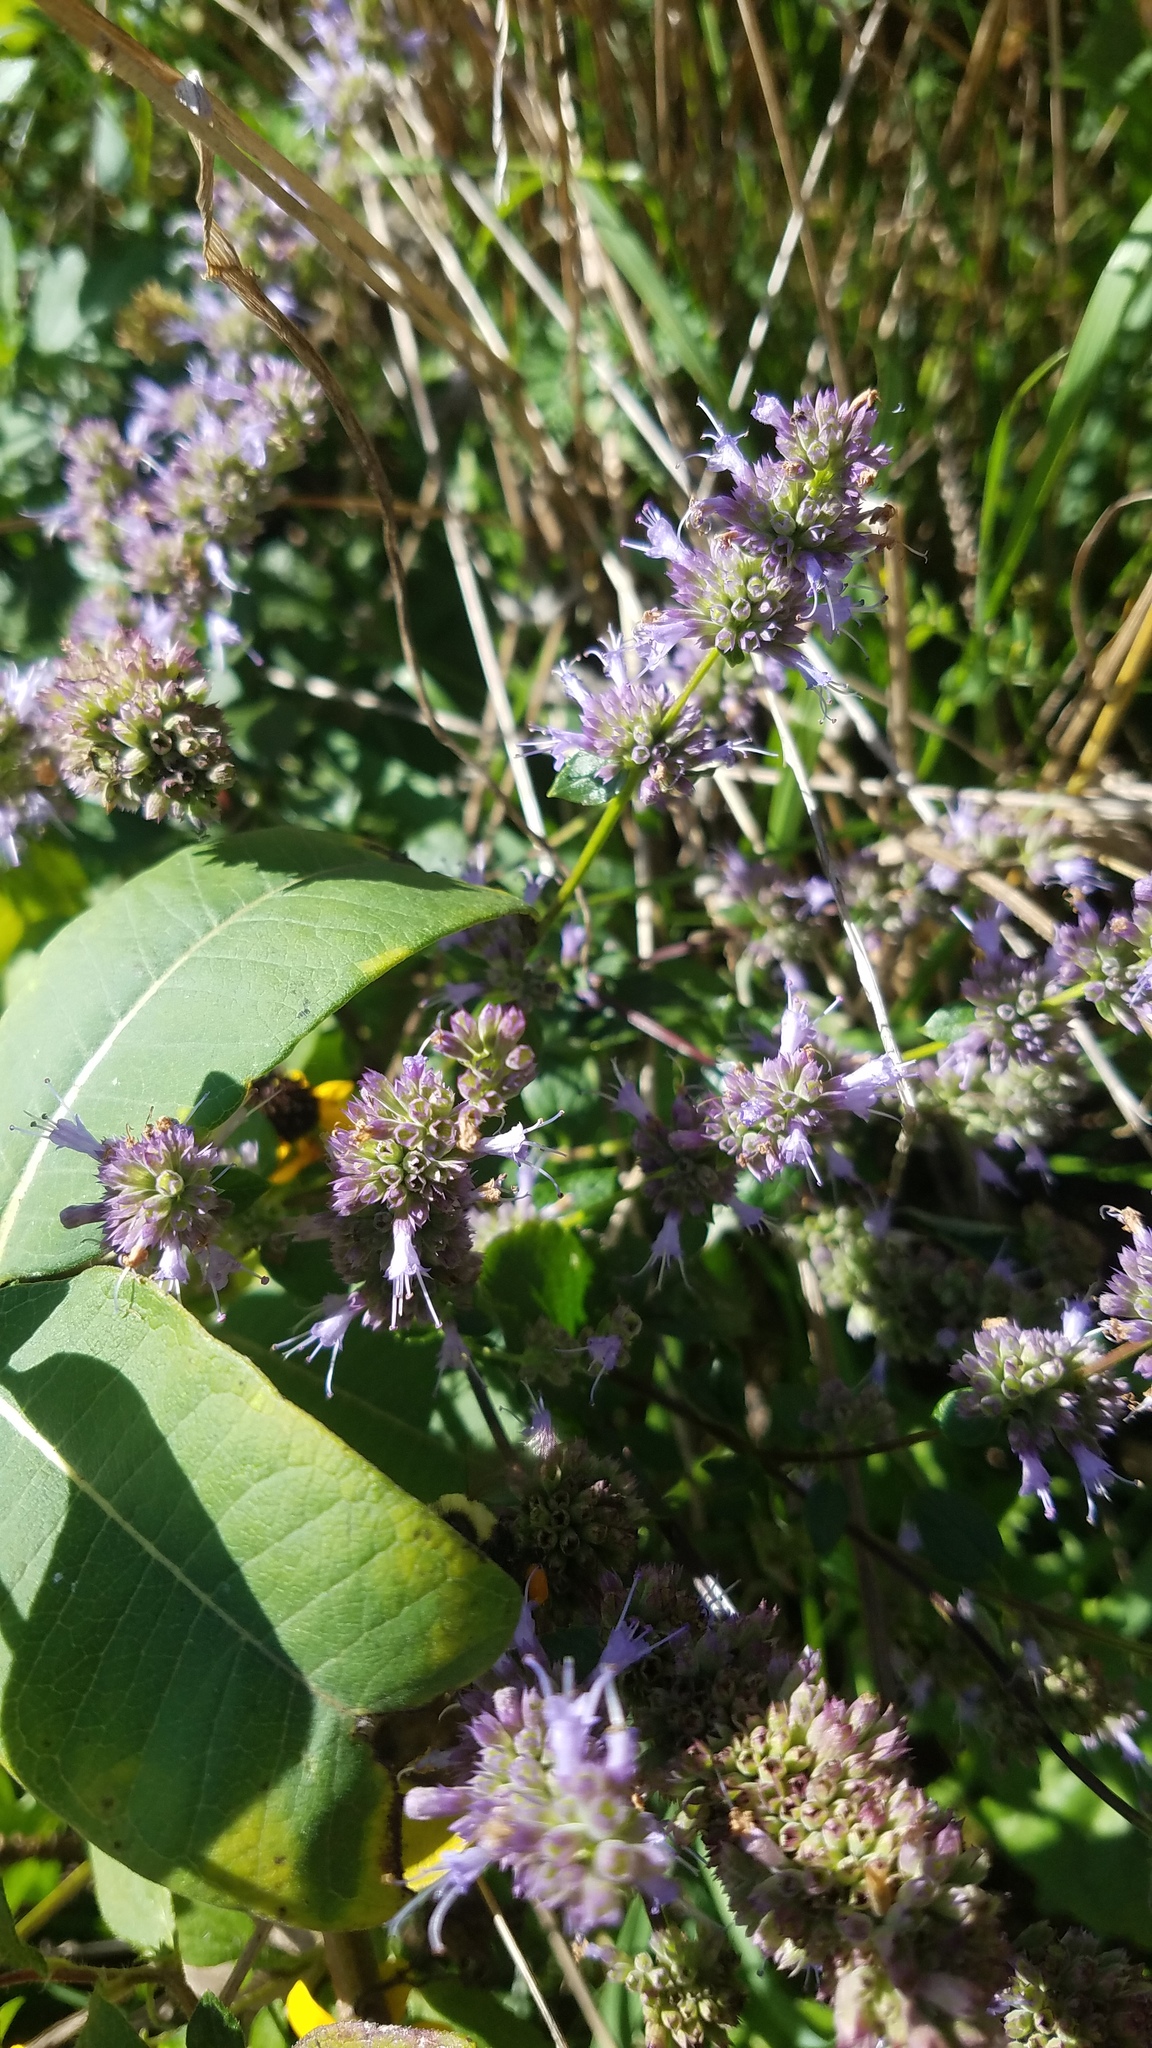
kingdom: Plantae
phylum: Tracheophyta
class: Magnoliopsida
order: Lamiales
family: Lamiaceae
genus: Agastache
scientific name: Agastache foeniculum
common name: Anise hyssop
